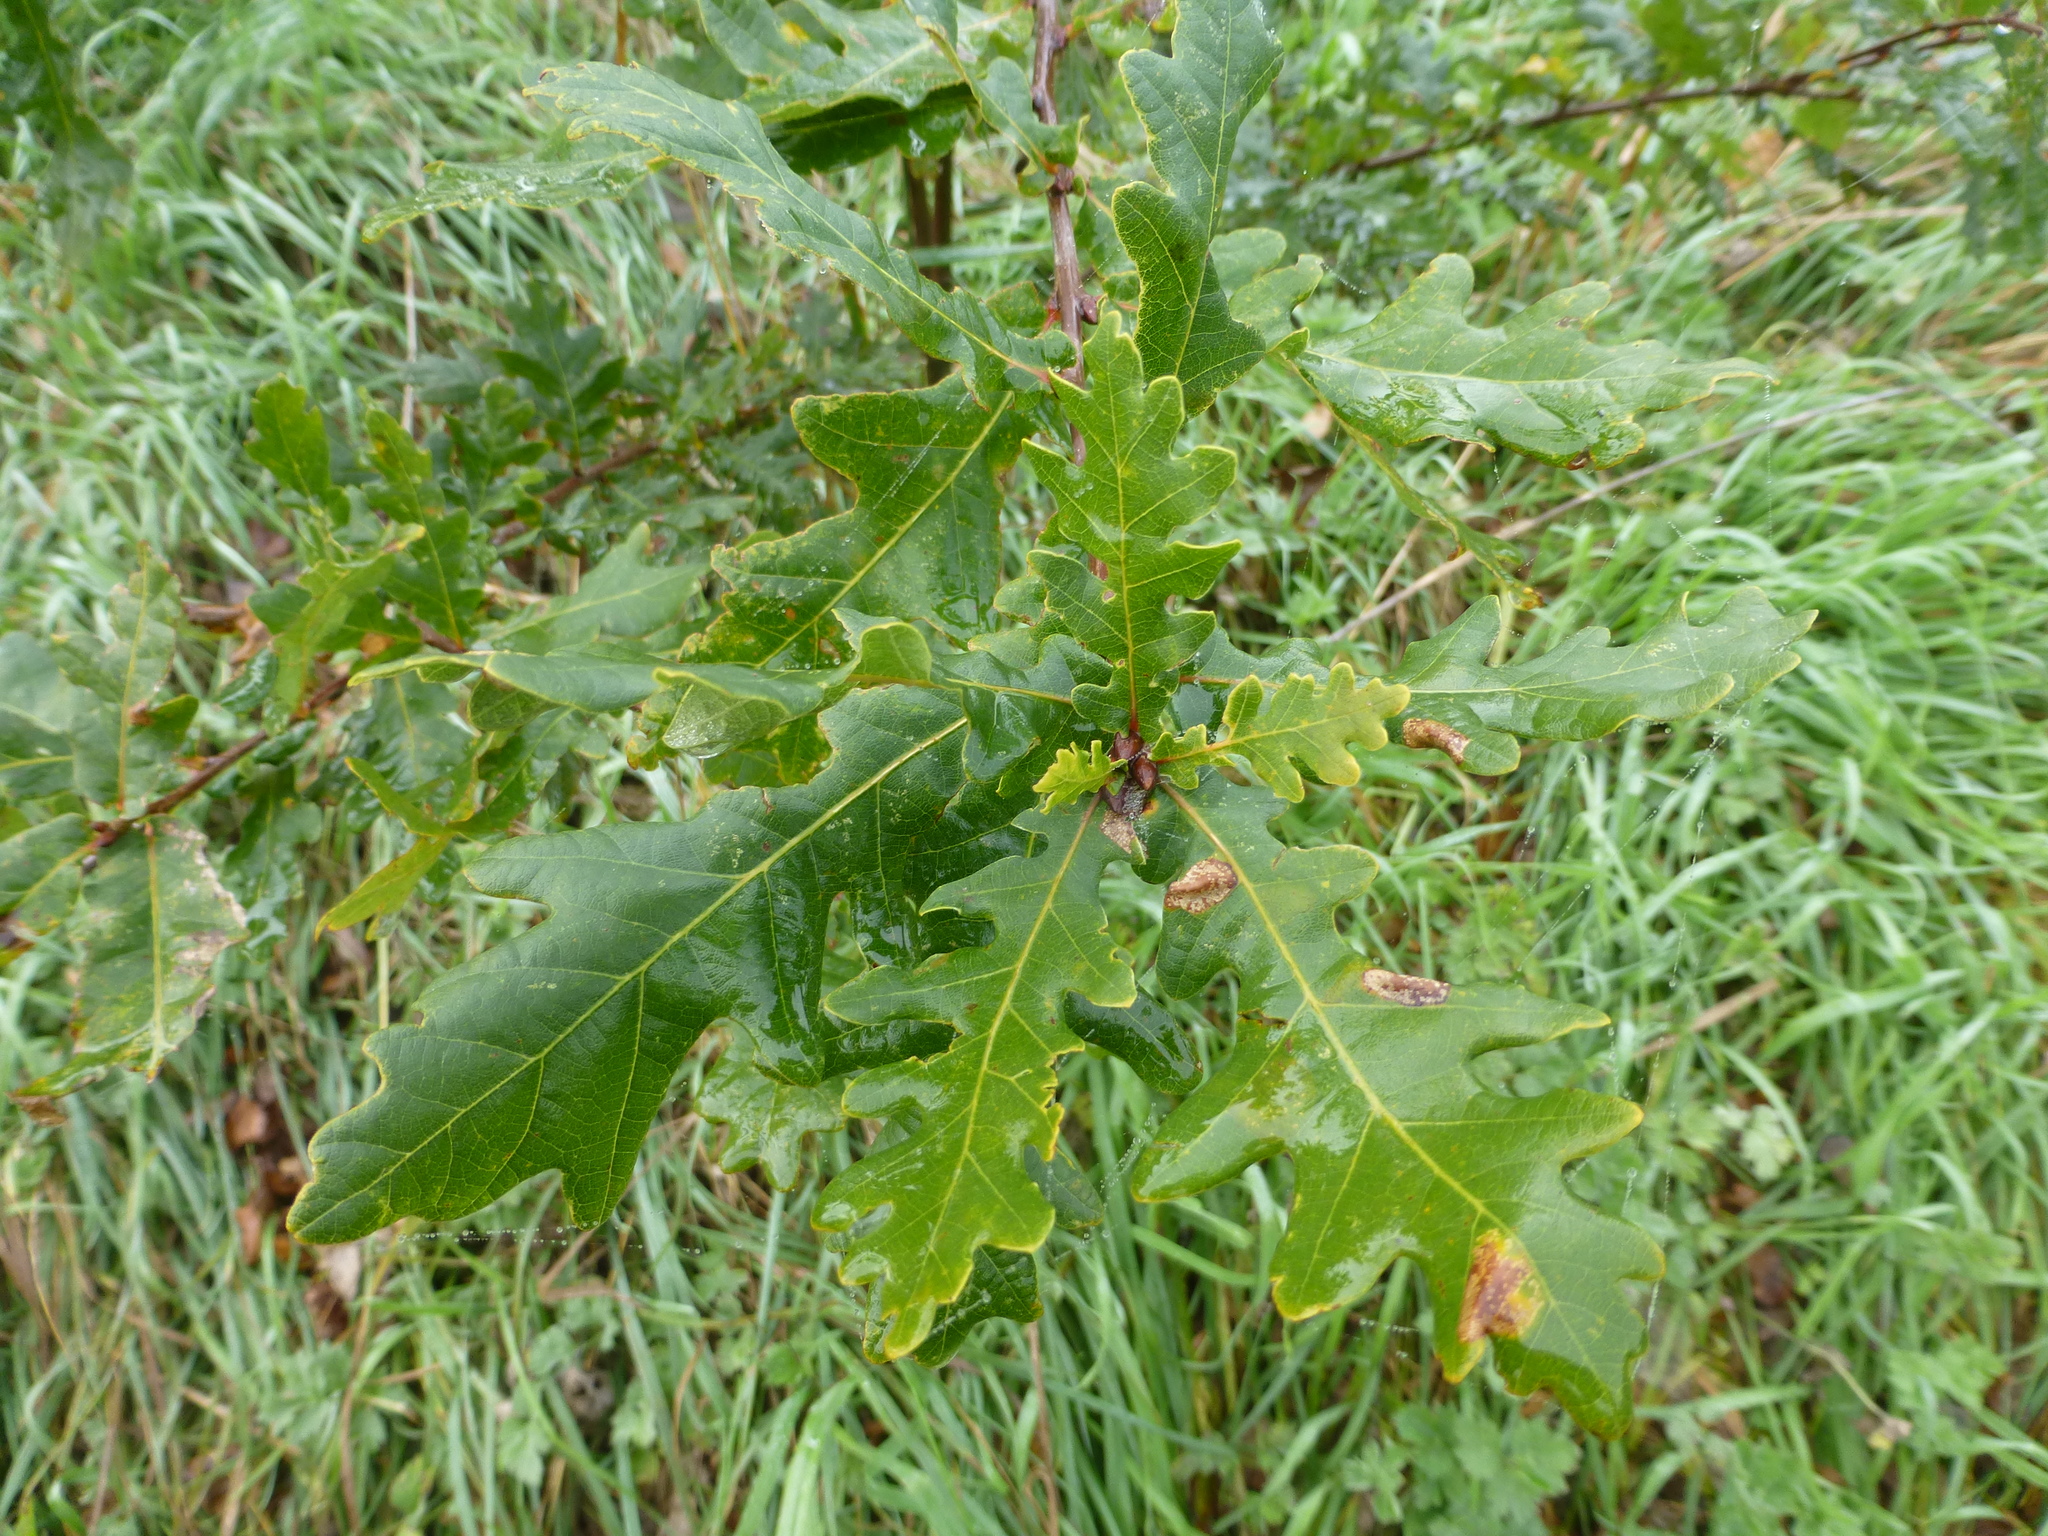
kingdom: Plantae
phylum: Tracheophyta
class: Magnoliopsida
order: Fagales
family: Fagaceae
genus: Quercus
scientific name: Quercus robur
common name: Pedunculate oak
